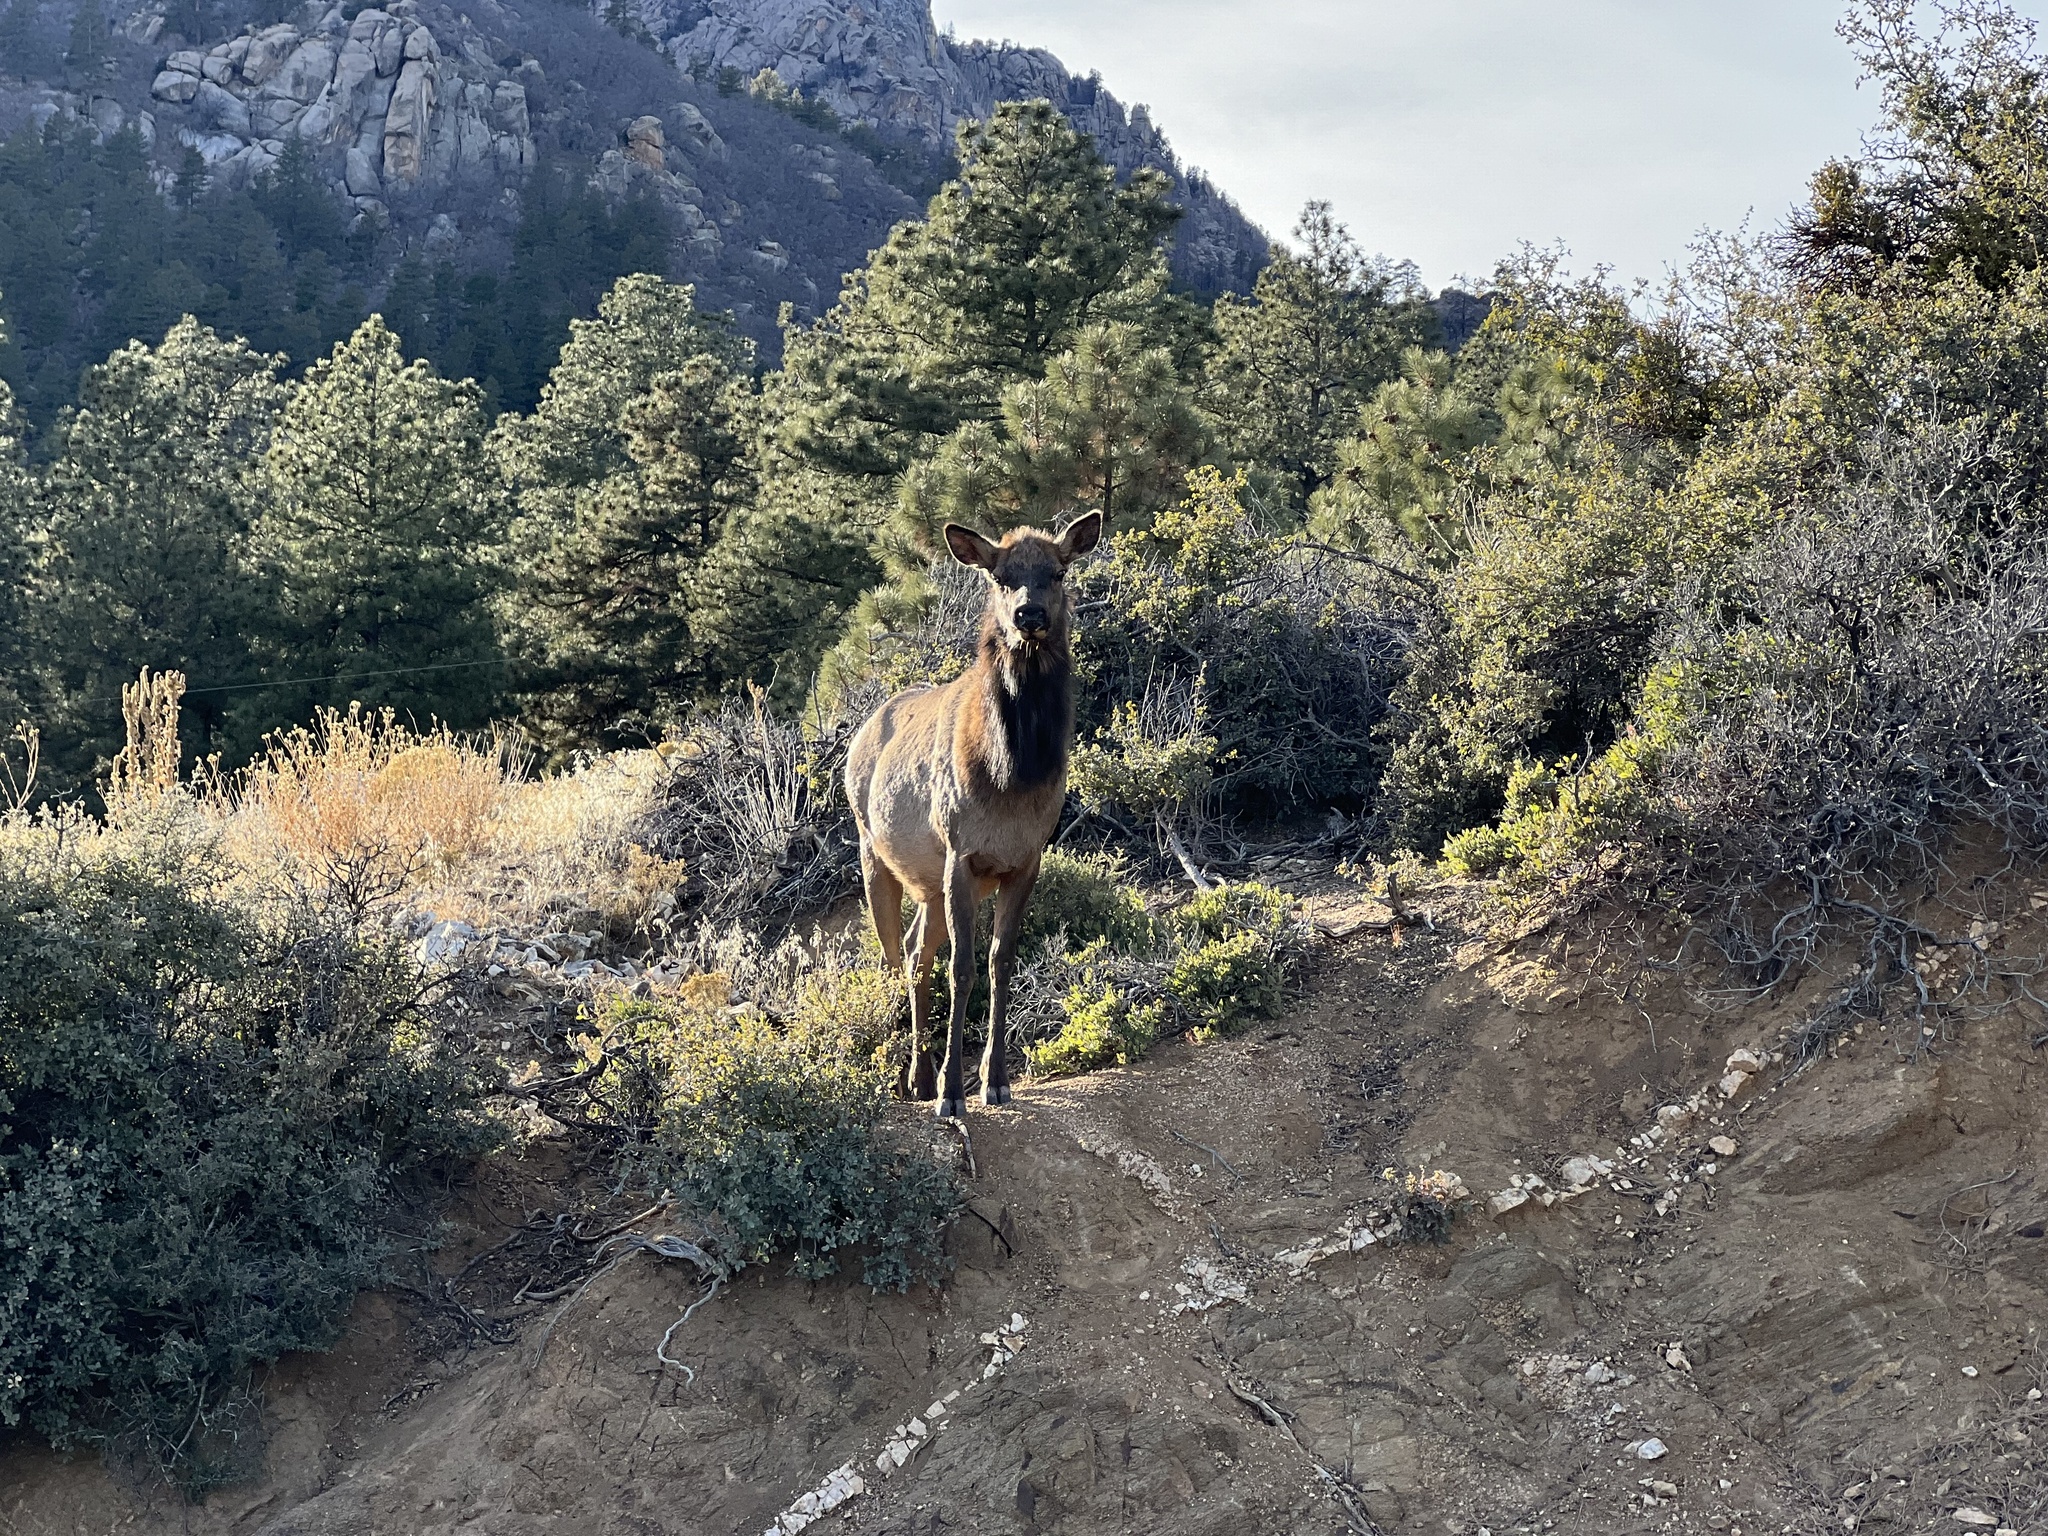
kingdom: Animalia
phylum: Chordata
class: Mammalia
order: Artiodactyla
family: Cervidae
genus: Cervus
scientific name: Cervus elaphus
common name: Red deer
